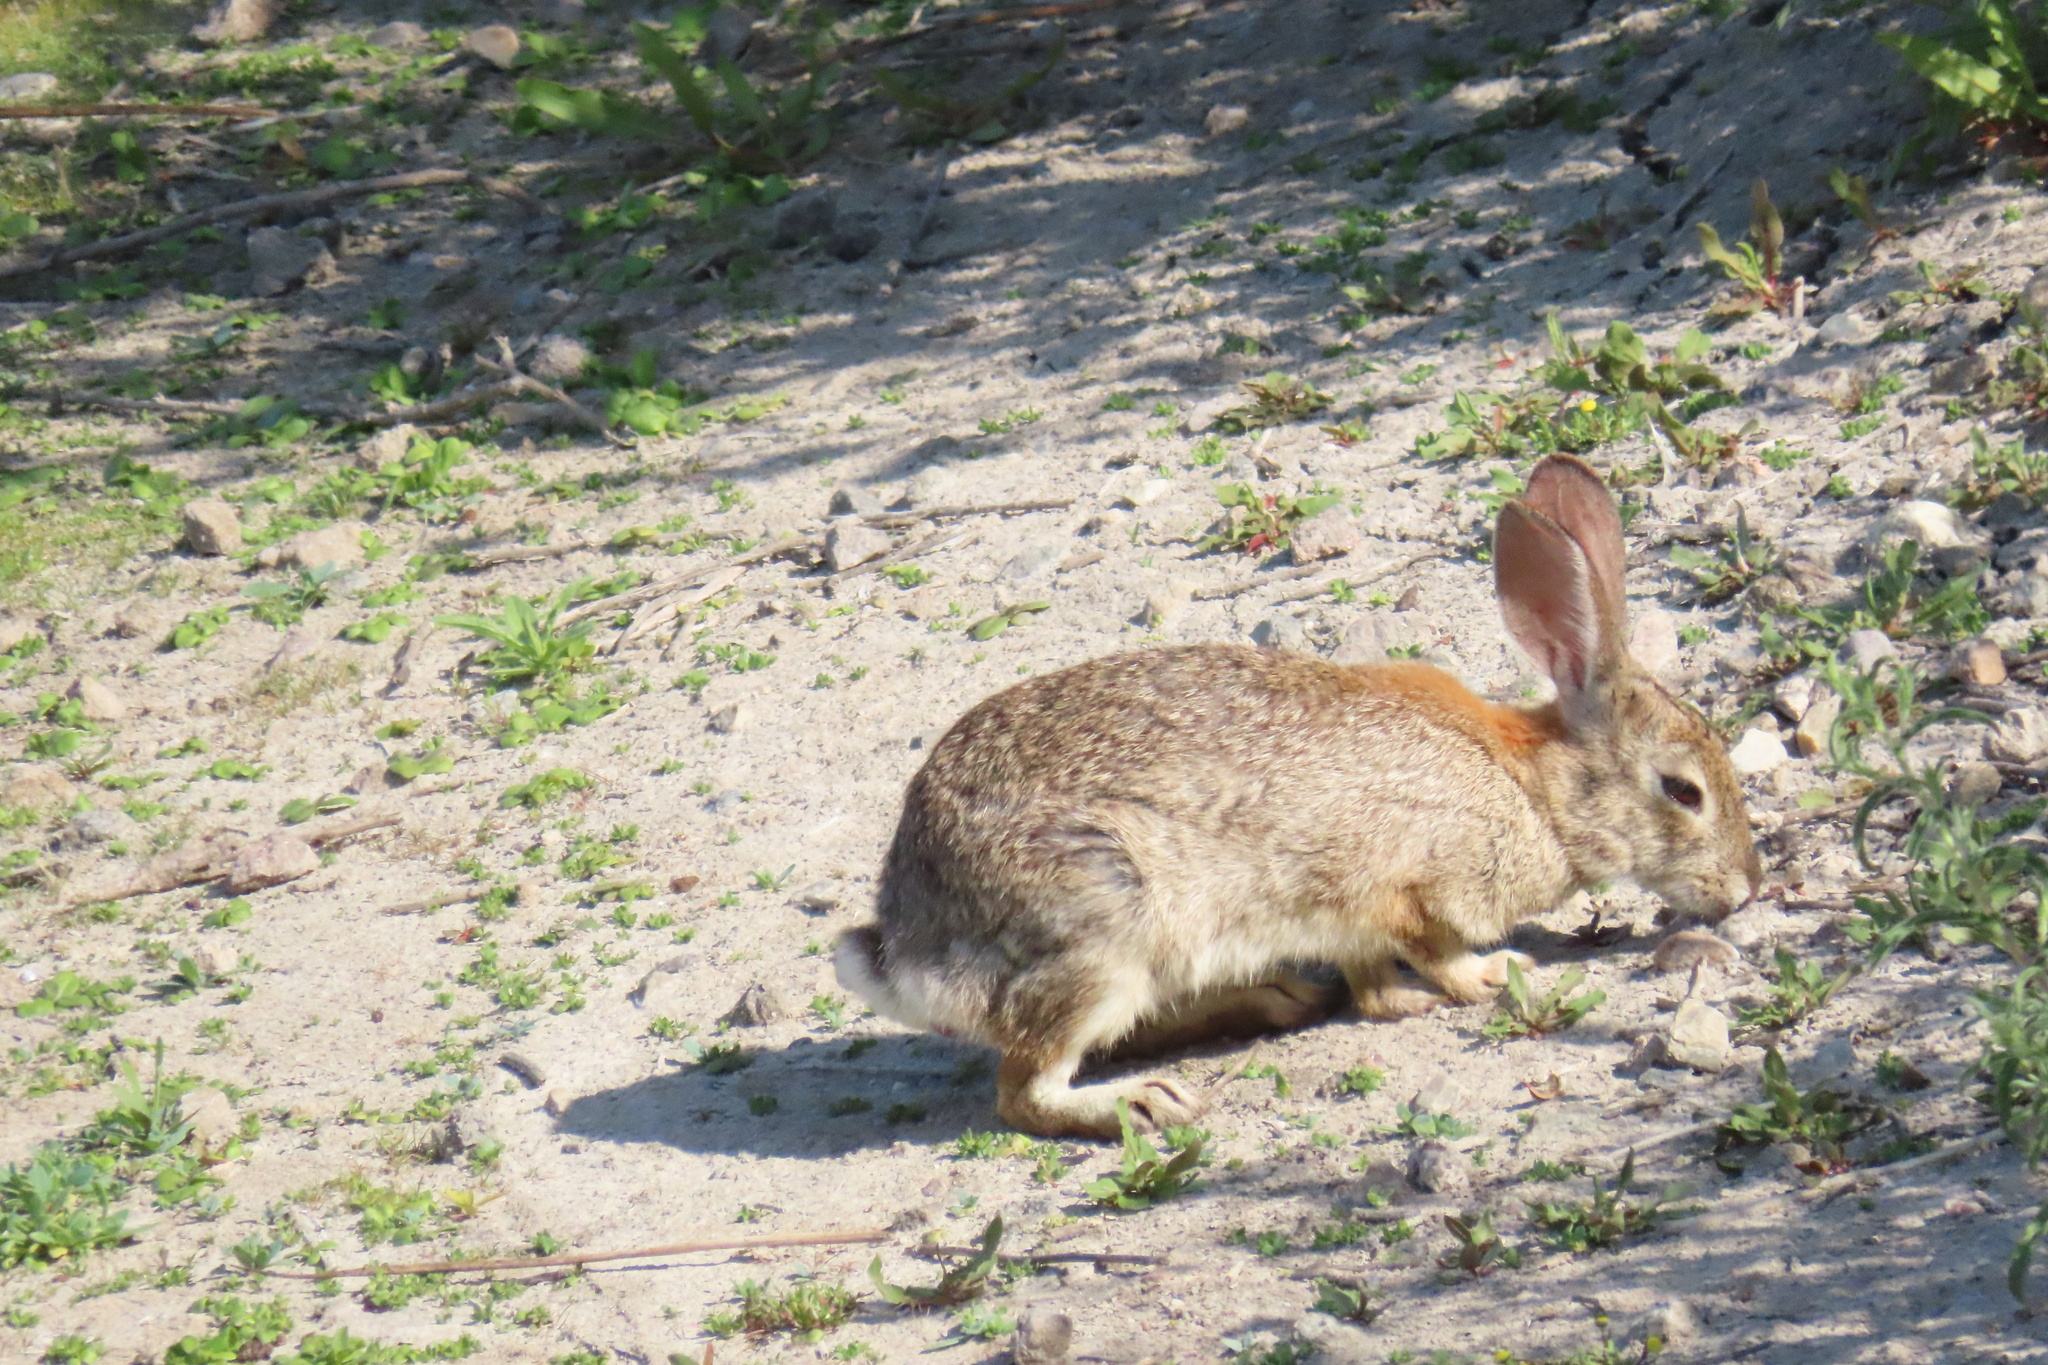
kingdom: Animalia
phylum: Chordata
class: Mammalia
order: Lagomorpha
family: Leporidae
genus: Sylvilagus
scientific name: Sylvilagus audubonii
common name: Desert cottontail
